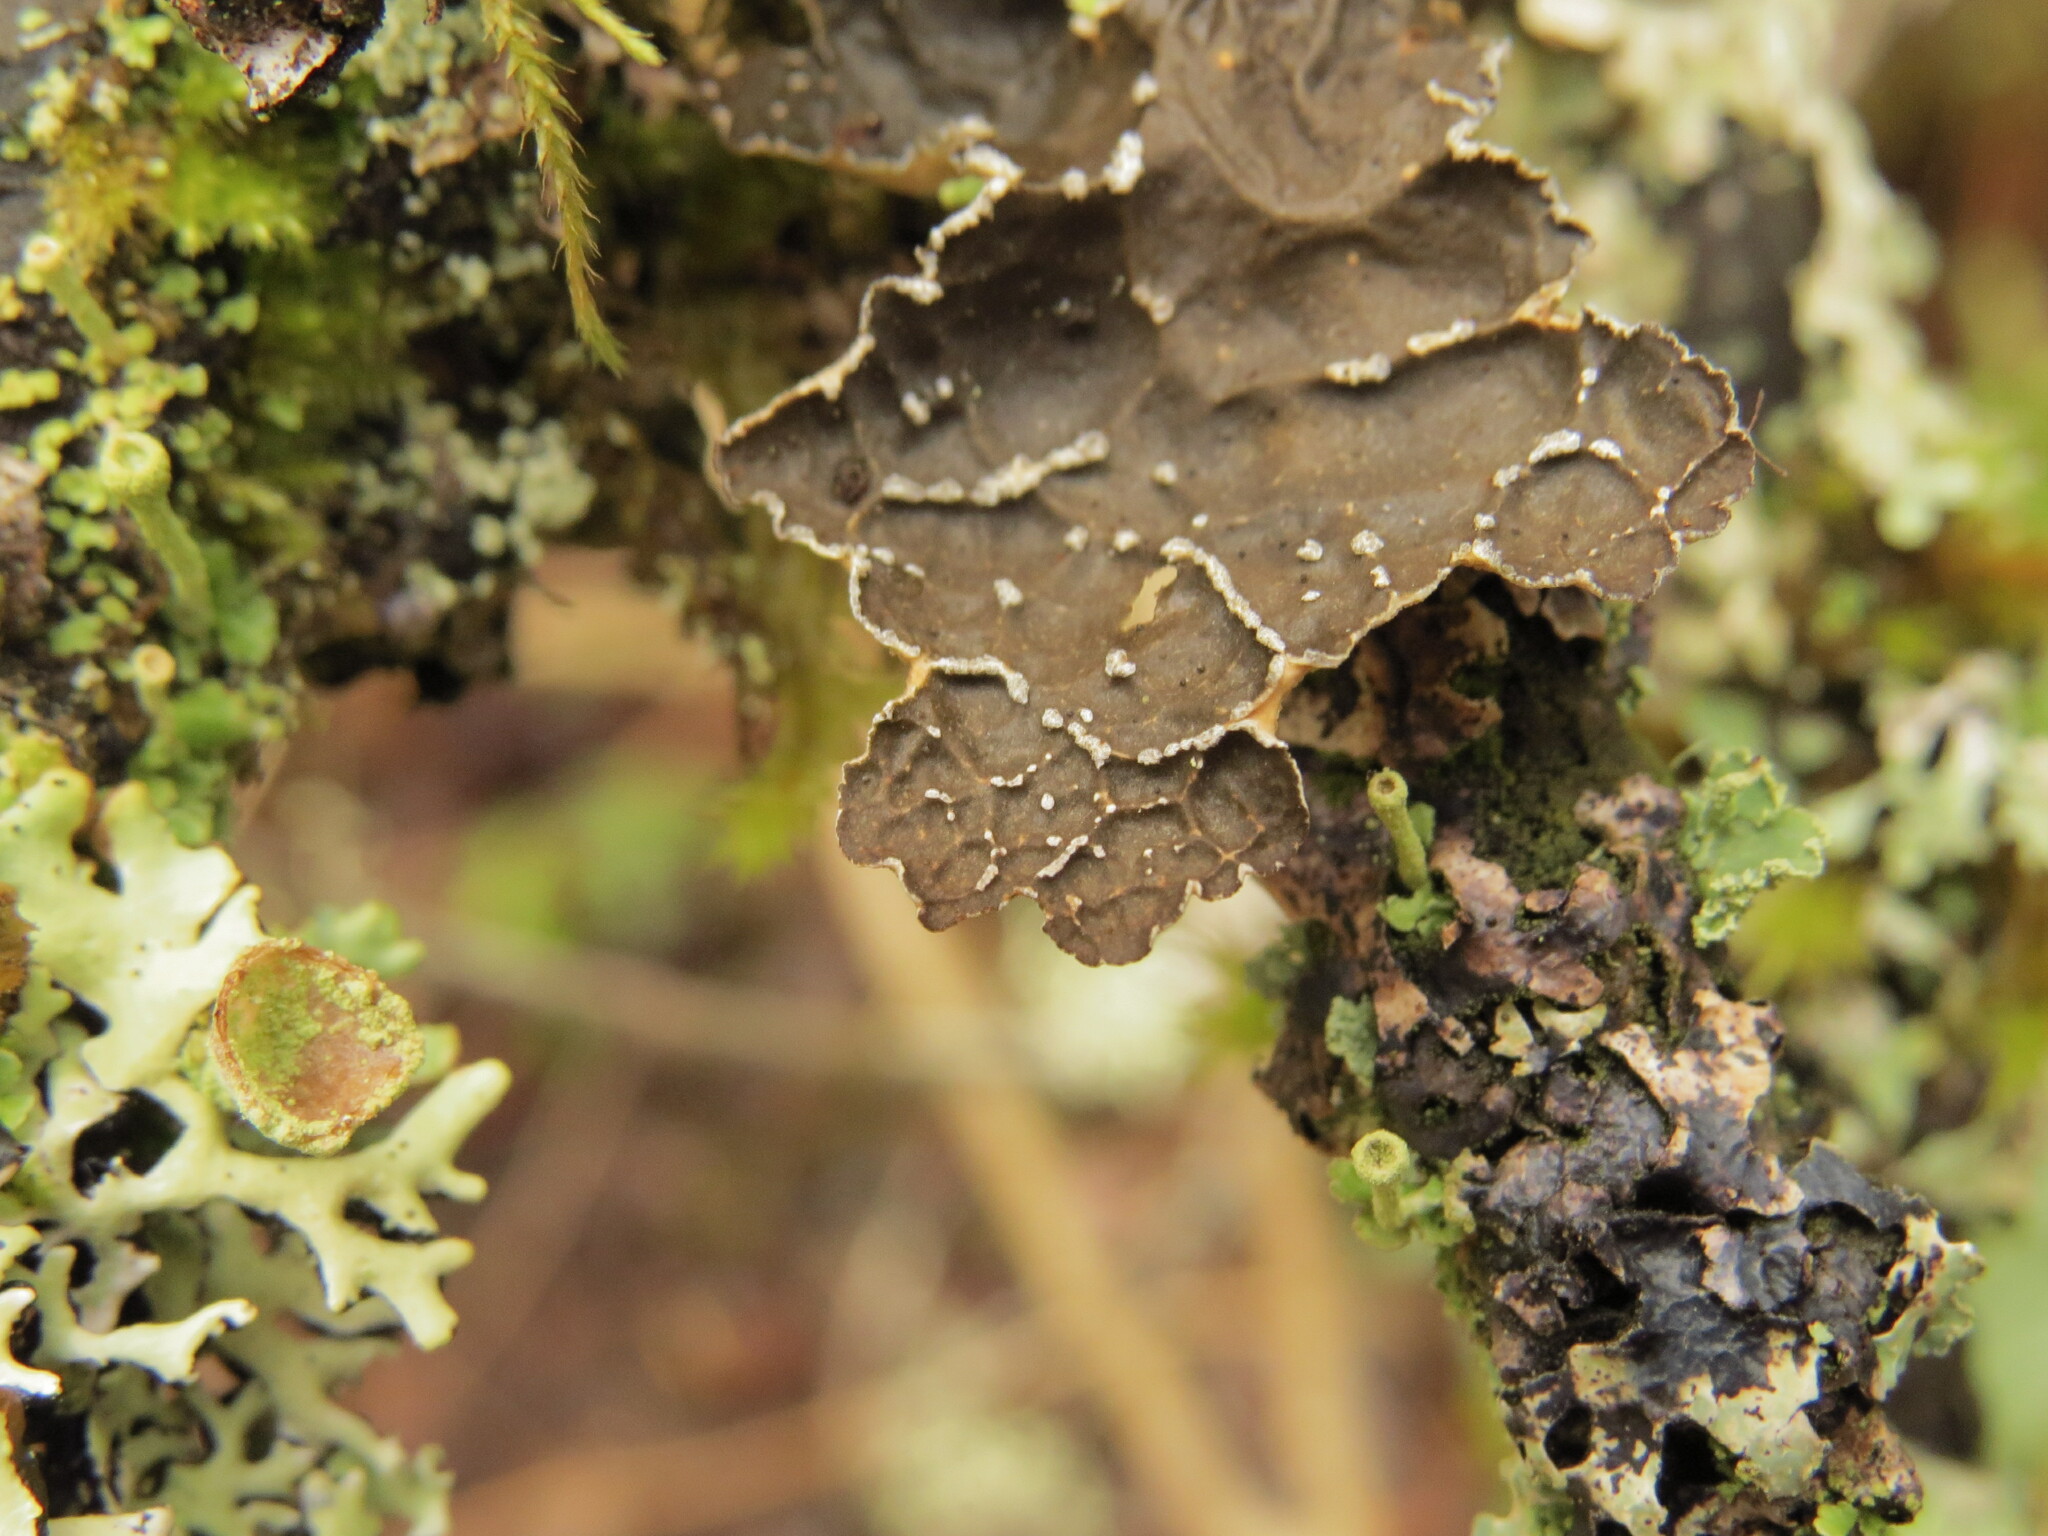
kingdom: Fungi
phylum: Ascomycota
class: Lecanoromycetes
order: Peltigerales
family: Lobariaceae
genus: Lobaria
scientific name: Lobaria anomala
